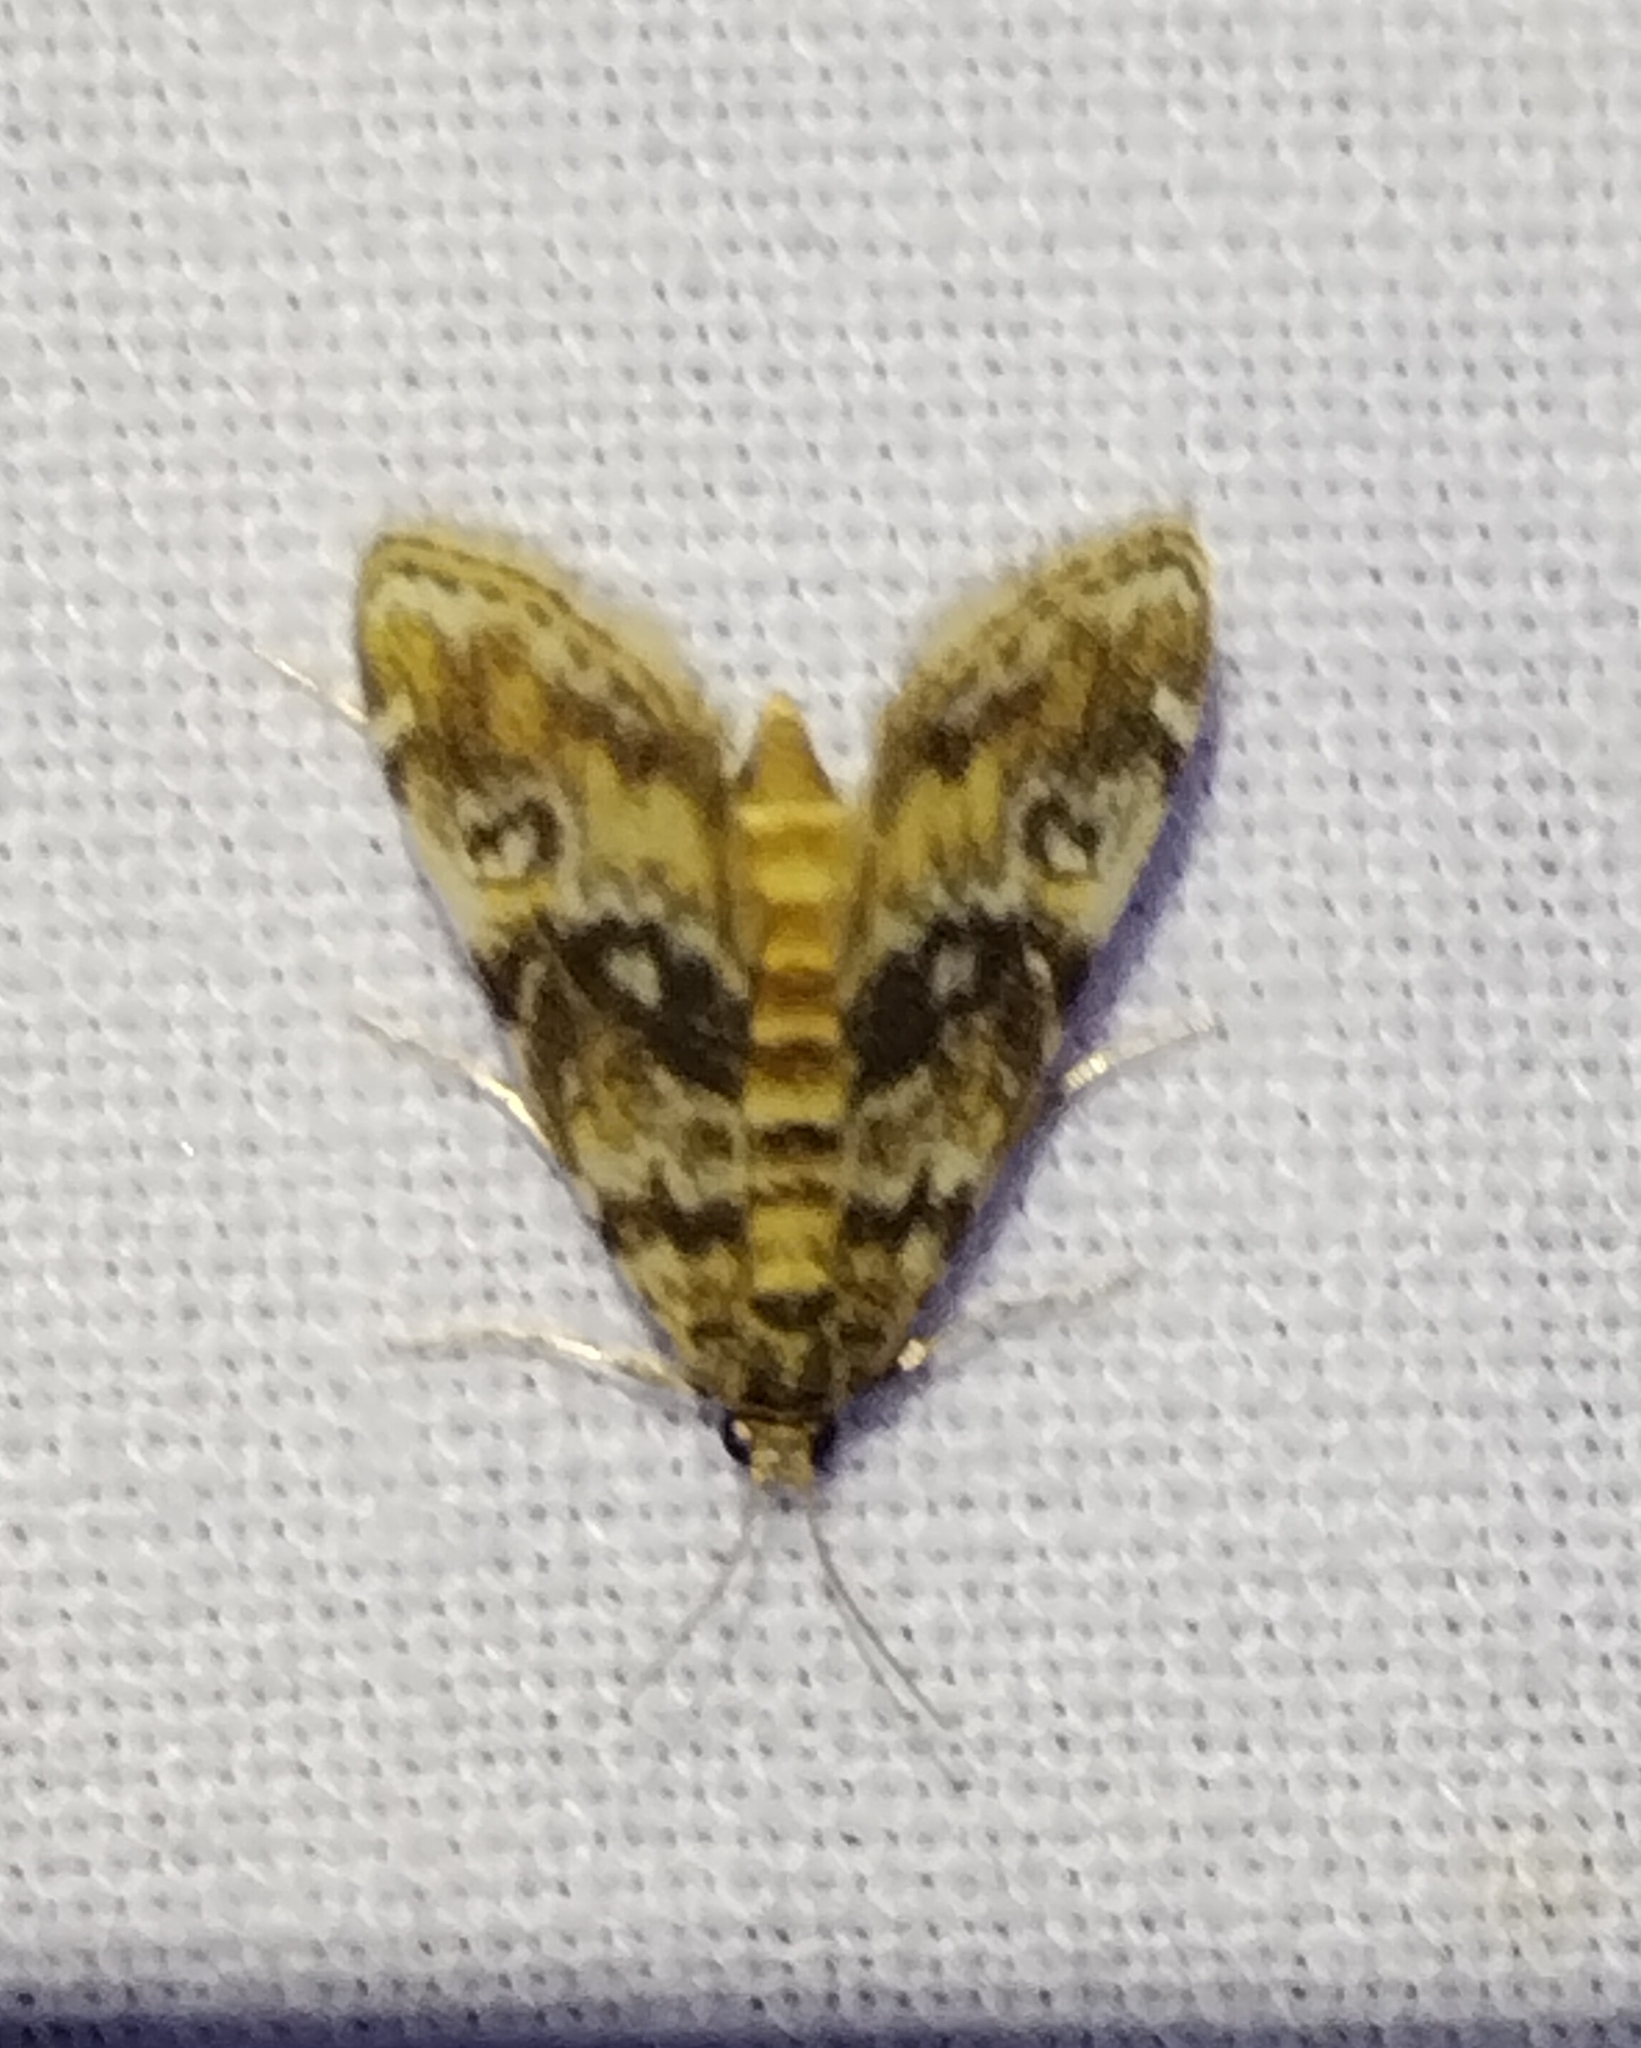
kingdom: Animalia
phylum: Arthropoda
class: Insecta
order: Lepidoptera
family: Crambidae
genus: Elophila
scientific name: Elophila obliteralis
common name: Waterlily leafcutter moth
